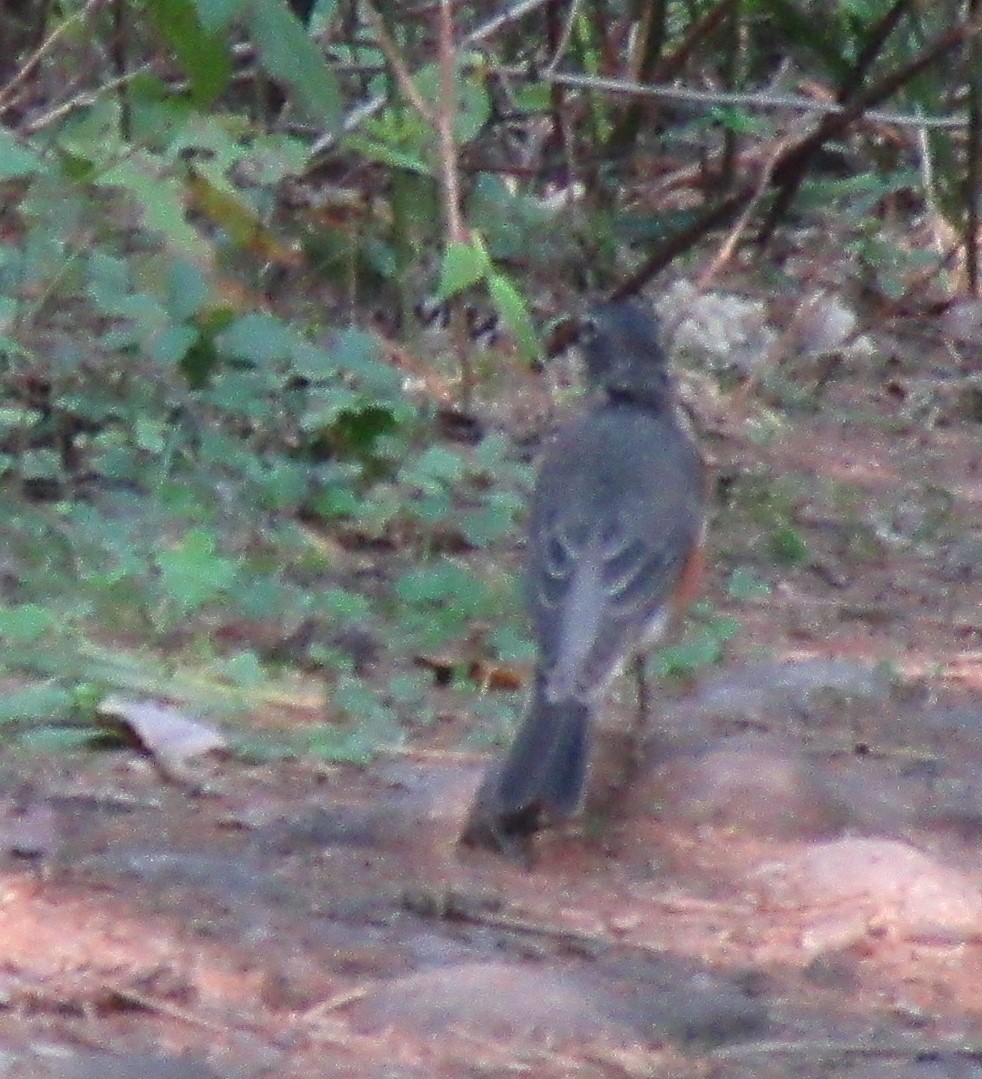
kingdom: Animalia
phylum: Chordata
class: Aves
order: Passeriformes
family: Turdidae
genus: Turdus
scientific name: Turdus migratorius
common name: American robin
